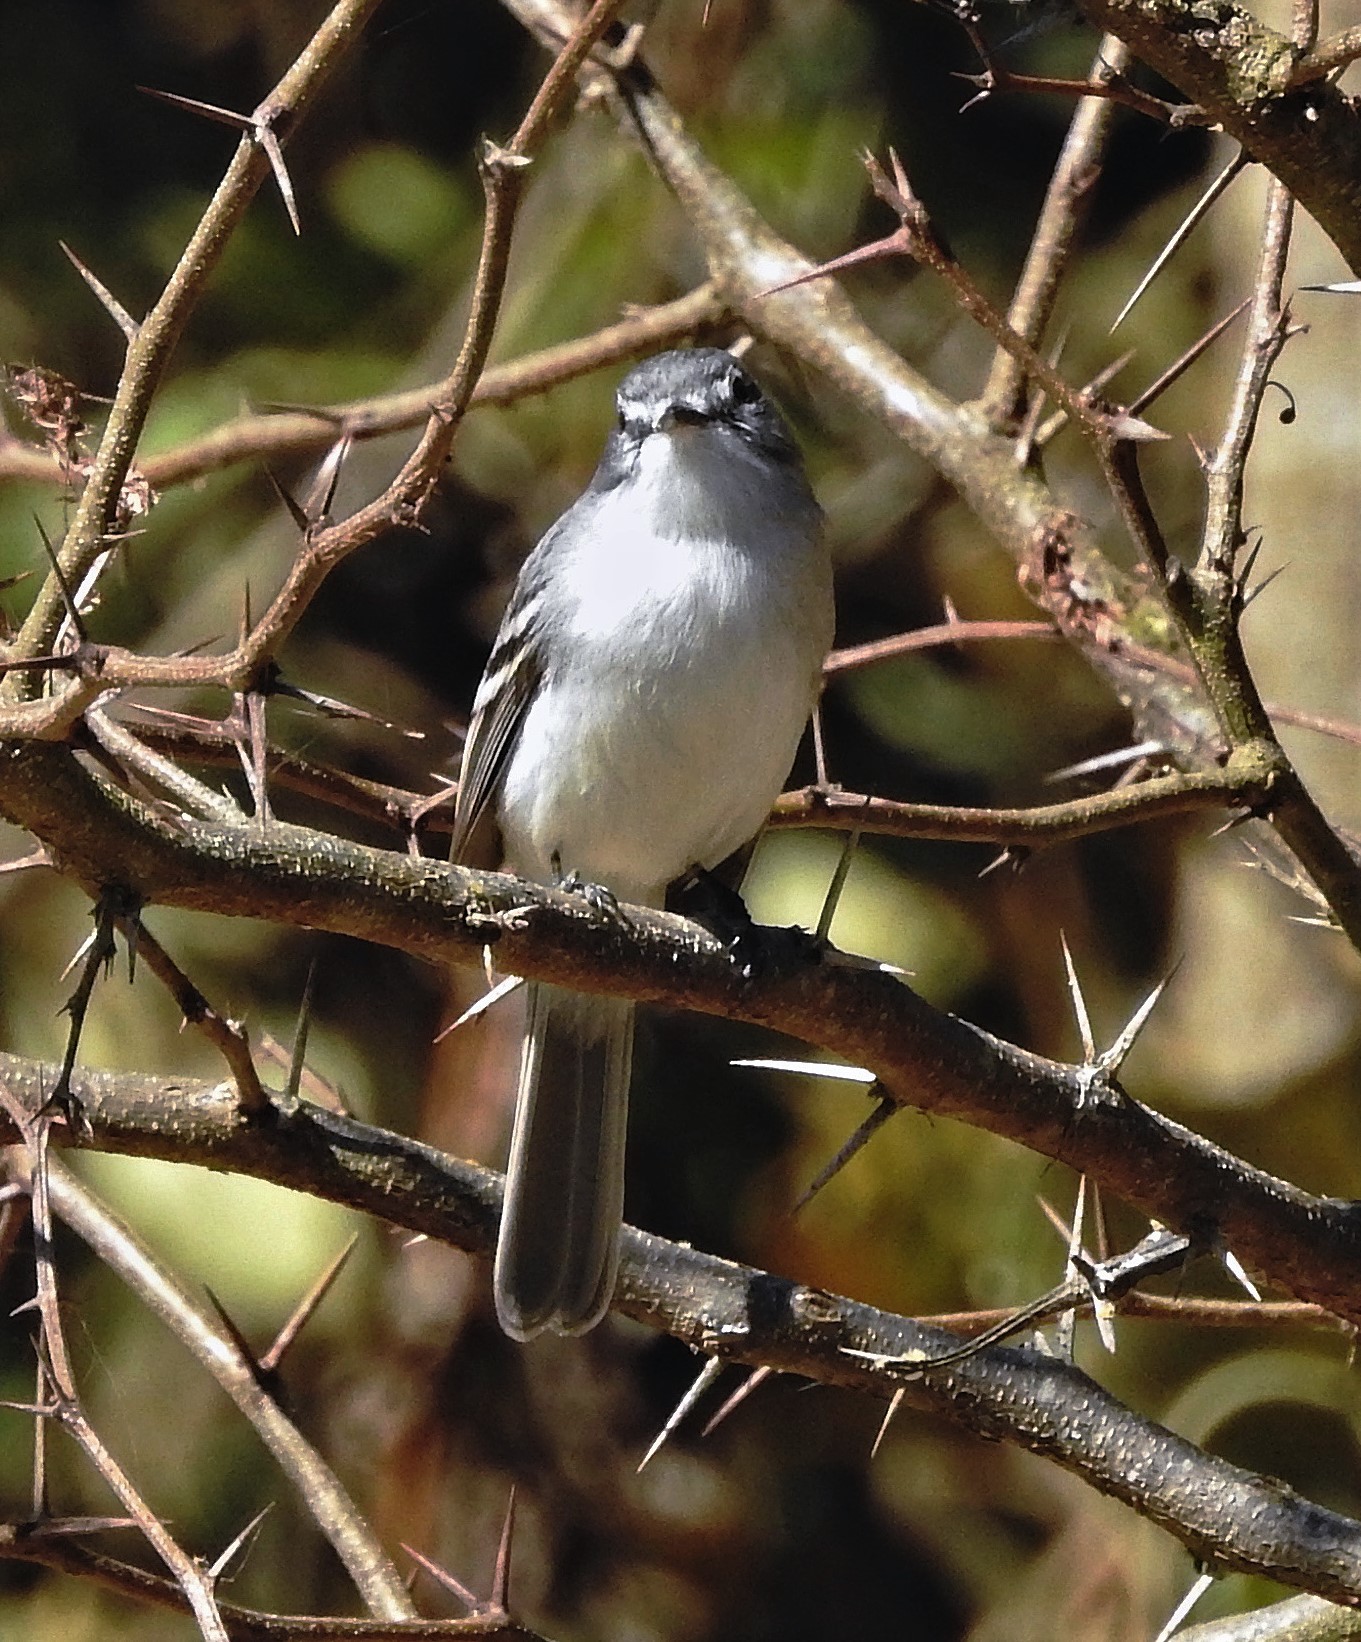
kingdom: Animalia
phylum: Chordata
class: Aves
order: Passeriformes
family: Tyrannidae
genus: Serpophaga
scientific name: Serpophaga subcristata
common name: White-crested tyrannulet
